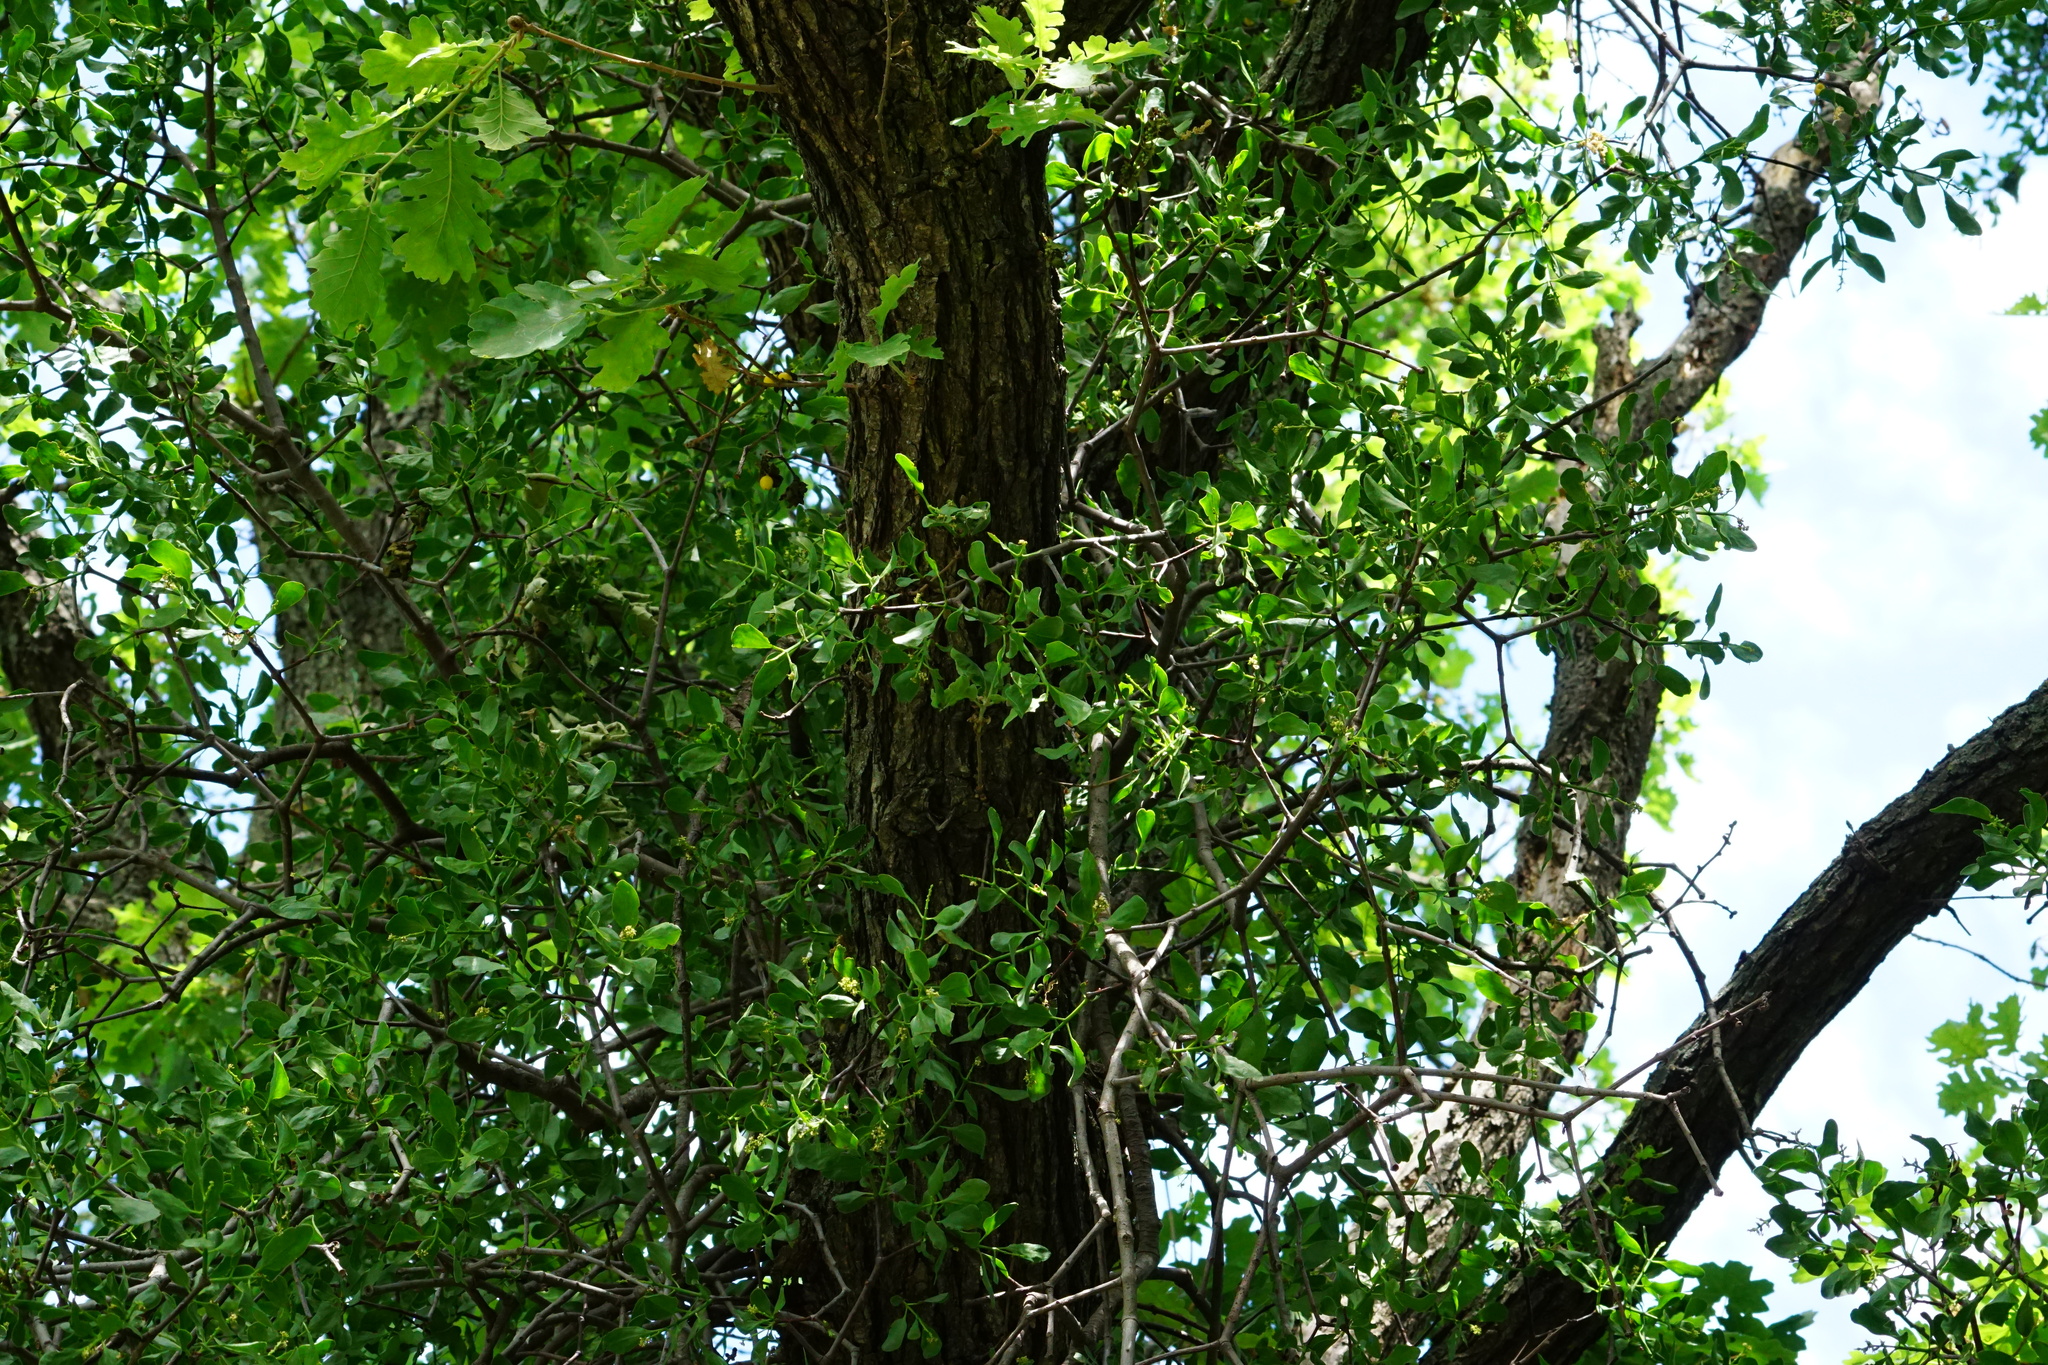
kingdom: Plantae
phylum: Tracheophyta
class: Magnoliopsida
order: Santalales
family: Loranthaceae
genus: Loranthus
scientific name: Loranthus europaeus
